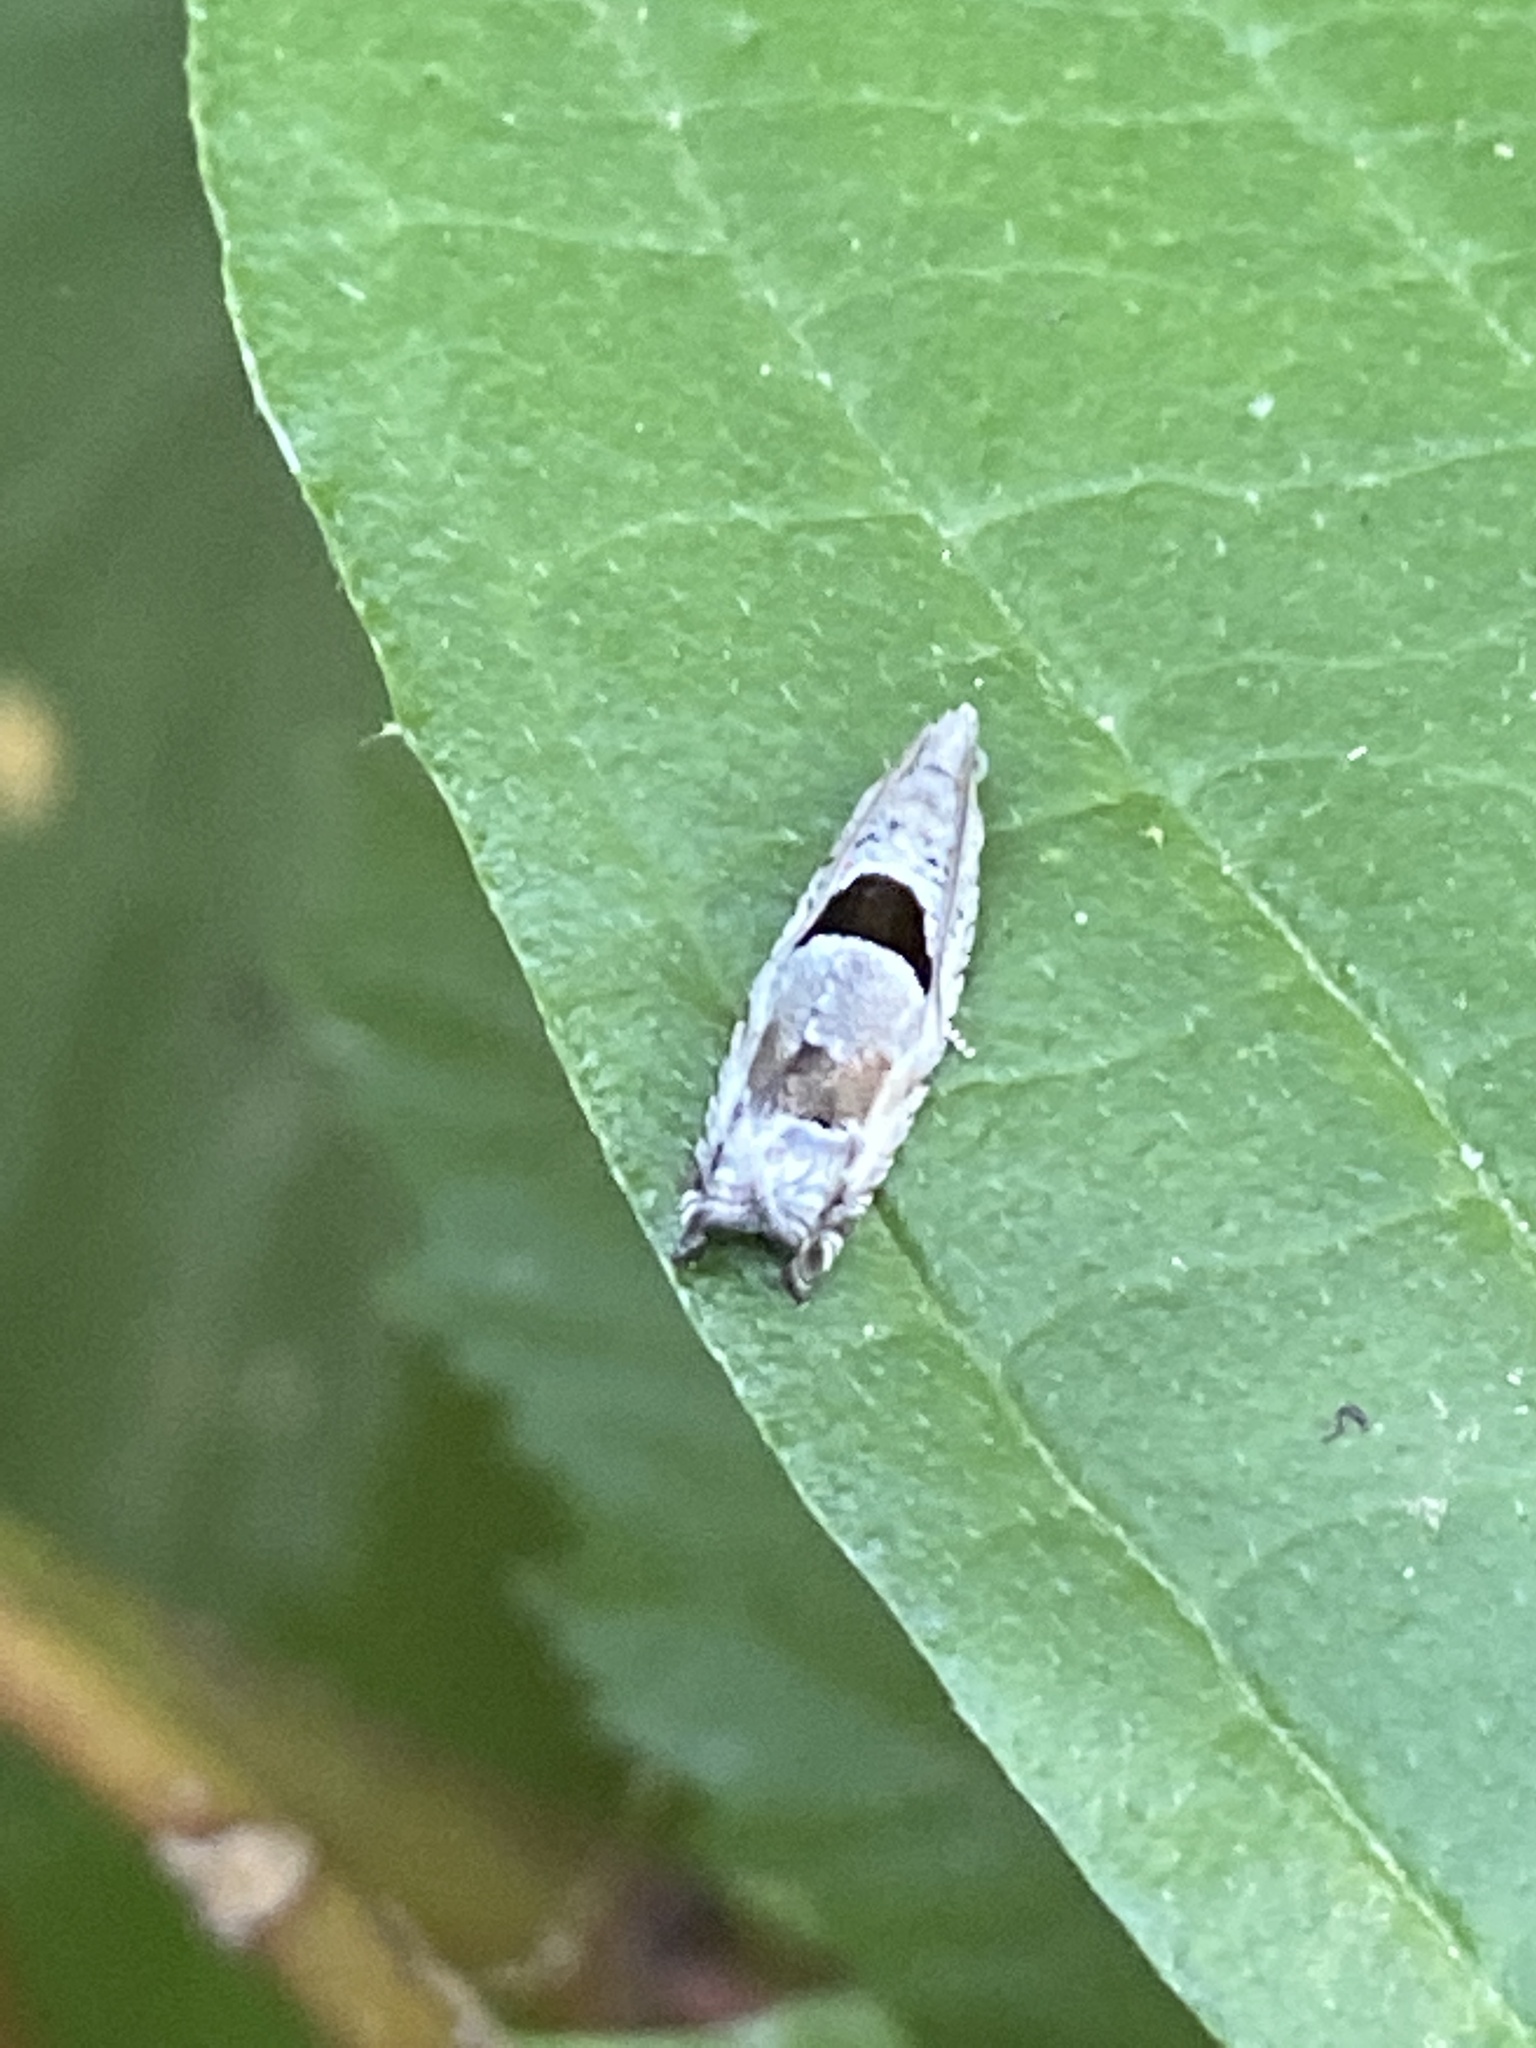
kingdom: Animalia
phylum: Arthropoda
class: Insecta
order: Lepidoptera
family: Tortricidae
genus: Epinotia
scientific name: Epinotia ramella
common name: Small birch bell
